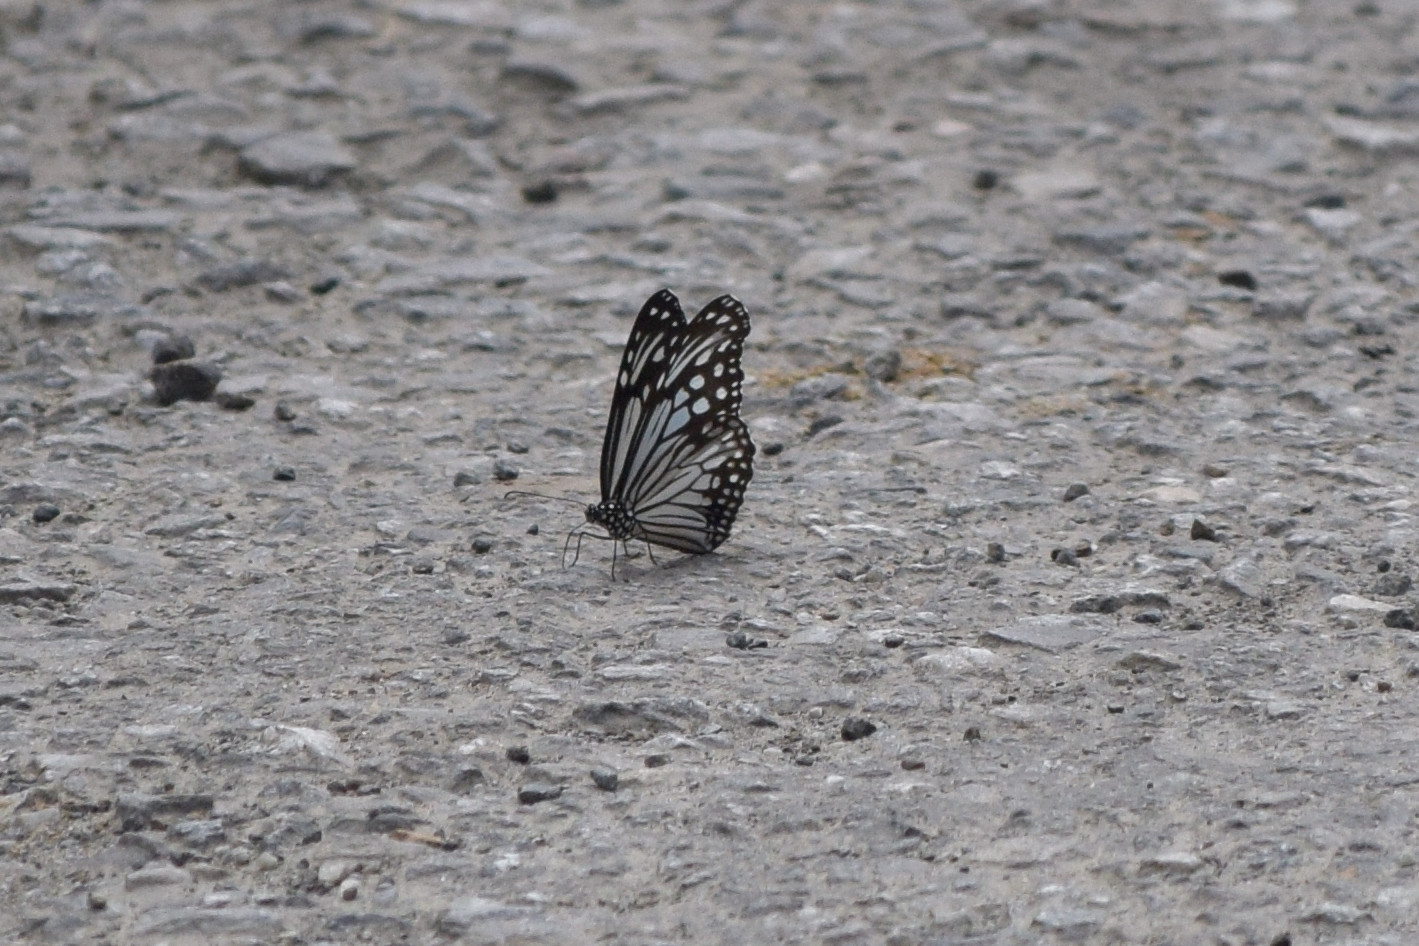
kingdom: Animalia
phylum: Arthropoda
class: Insecta
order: Lepidoptera
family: Nymphalidae
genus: Parantica
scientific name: Parantica aglea
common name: Glassy tiger
